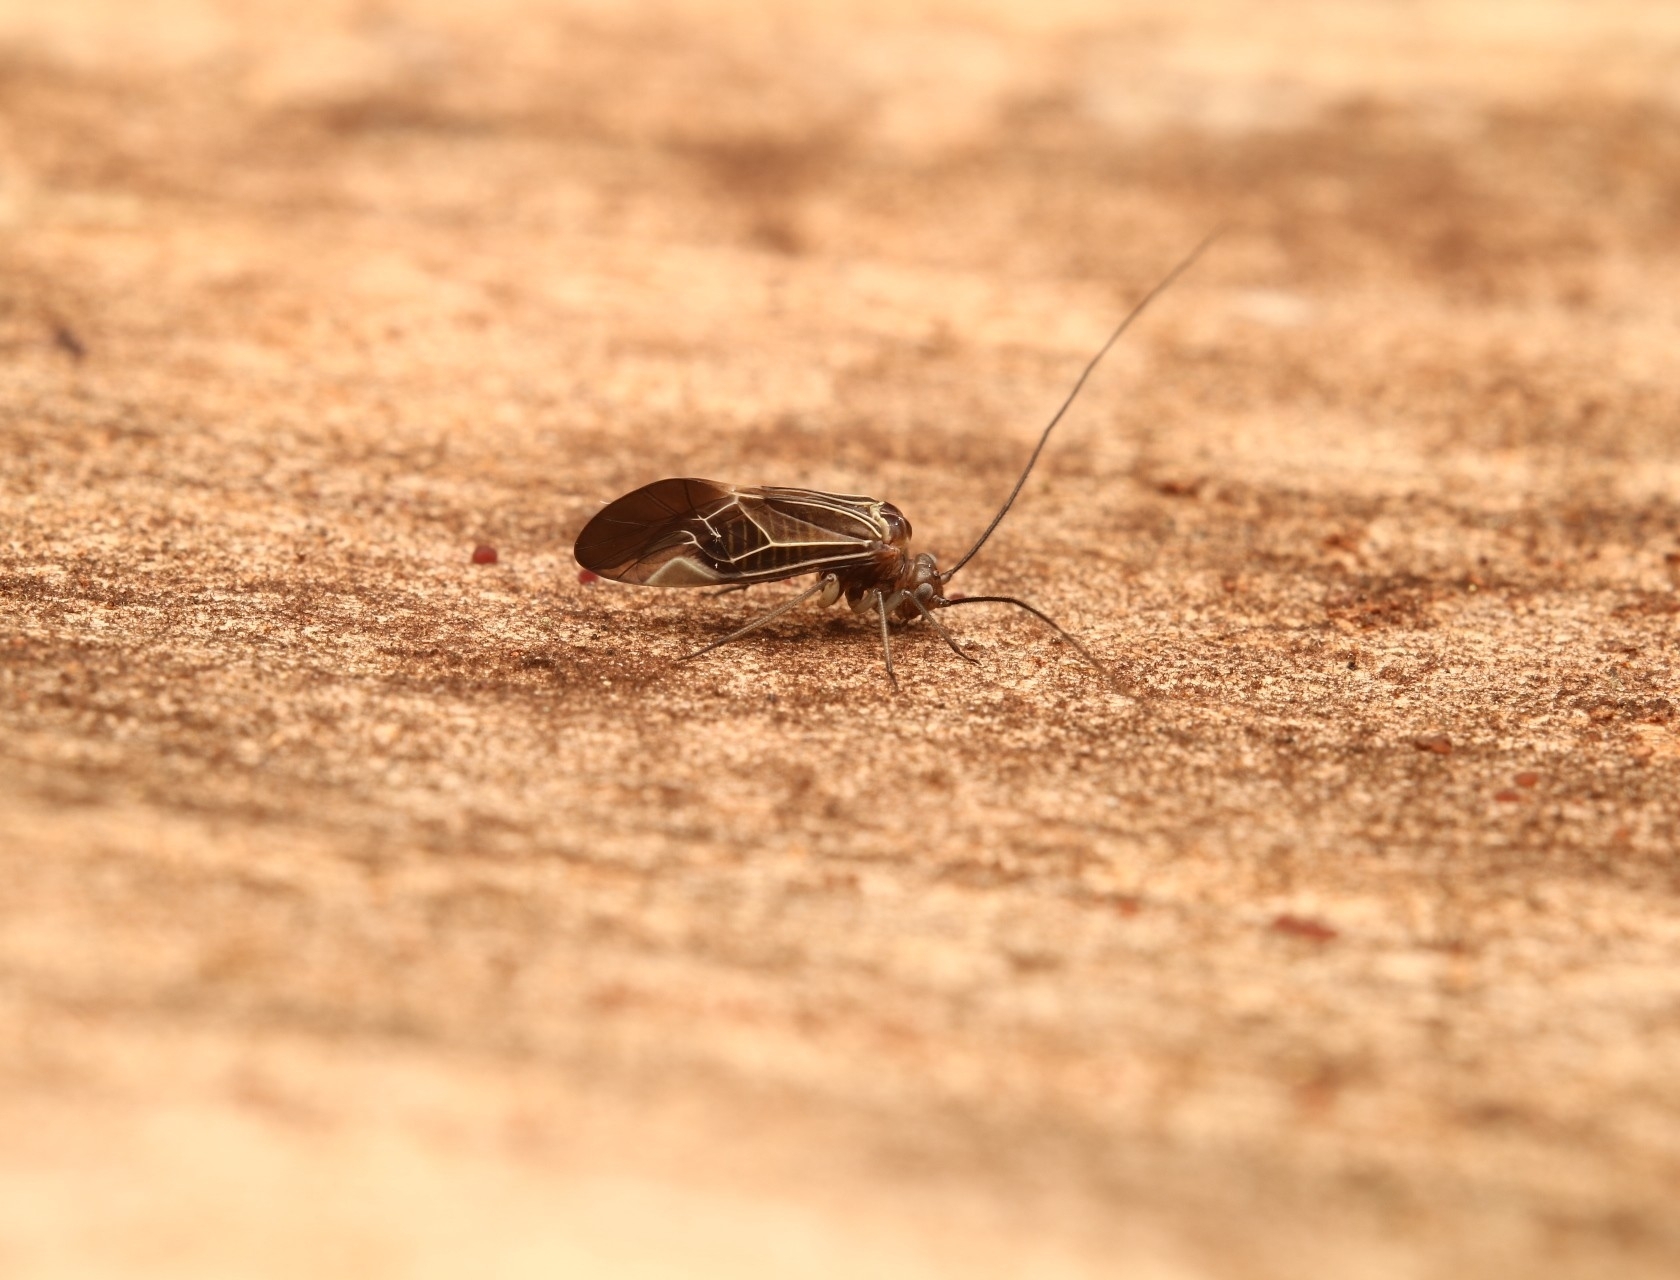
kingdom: Animalia
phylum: Arthropoda
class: Insecta
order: Psocodea
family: Psocidae
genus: Cerastipsocus
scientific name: Cerastipsocus venosus
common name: Tree cattle
